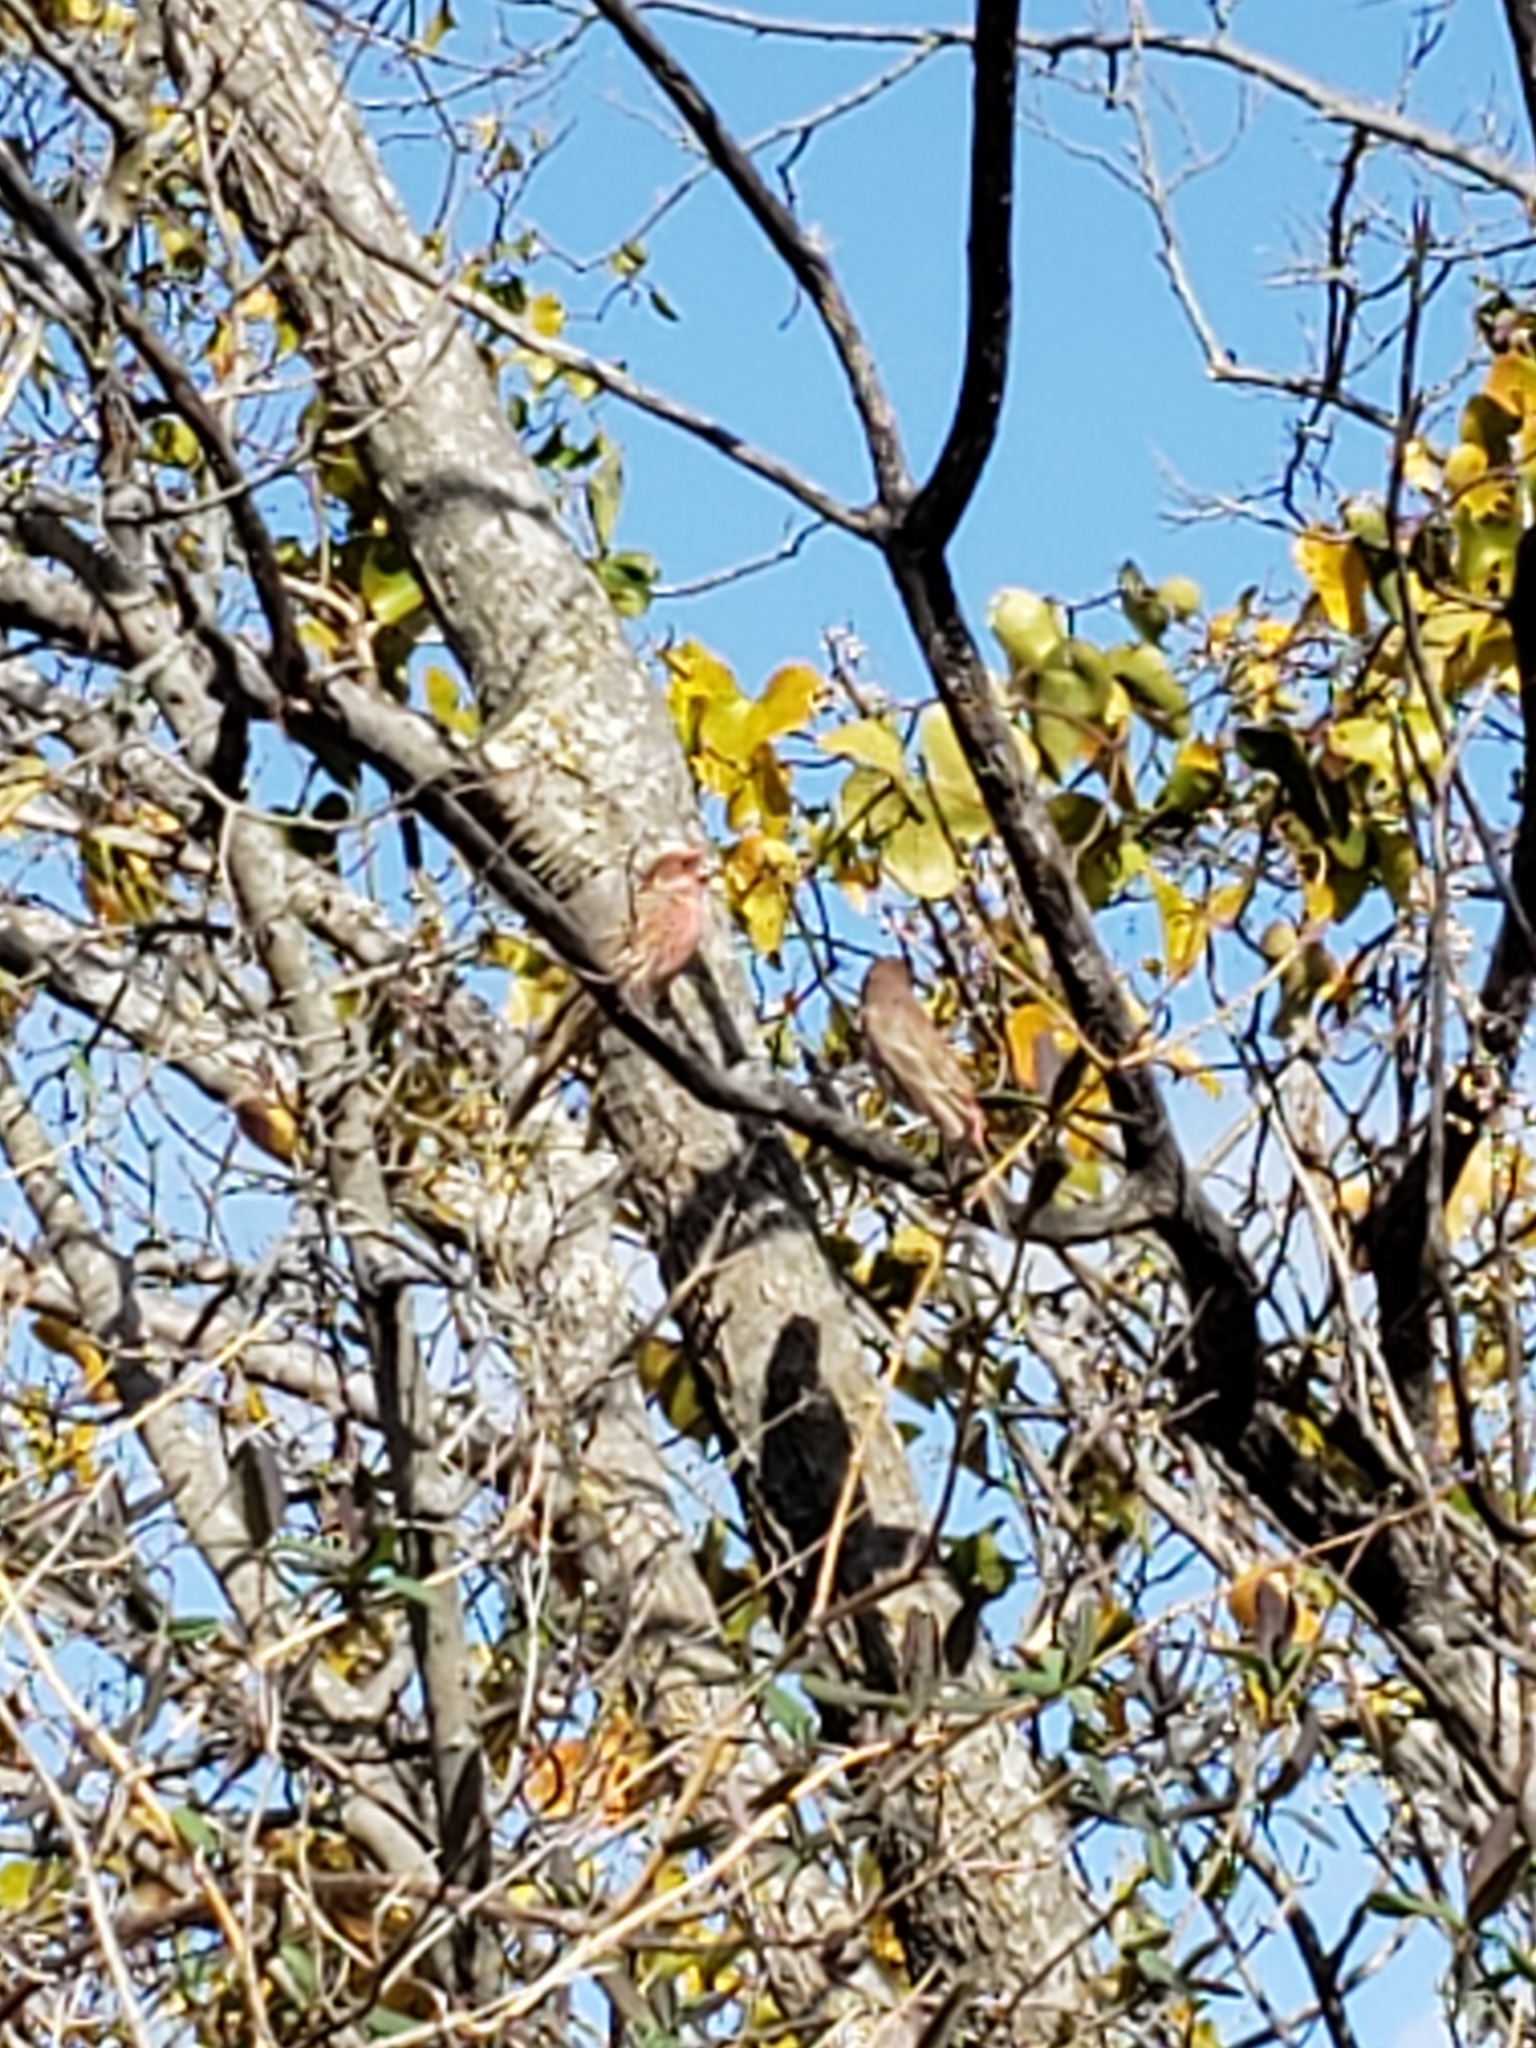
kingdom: Animalia
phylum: Chordata
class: Aves
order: Passeriformes
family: Fringillidae
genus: Haemorhous
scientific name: Haemorhous mexicanus
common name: House finch
